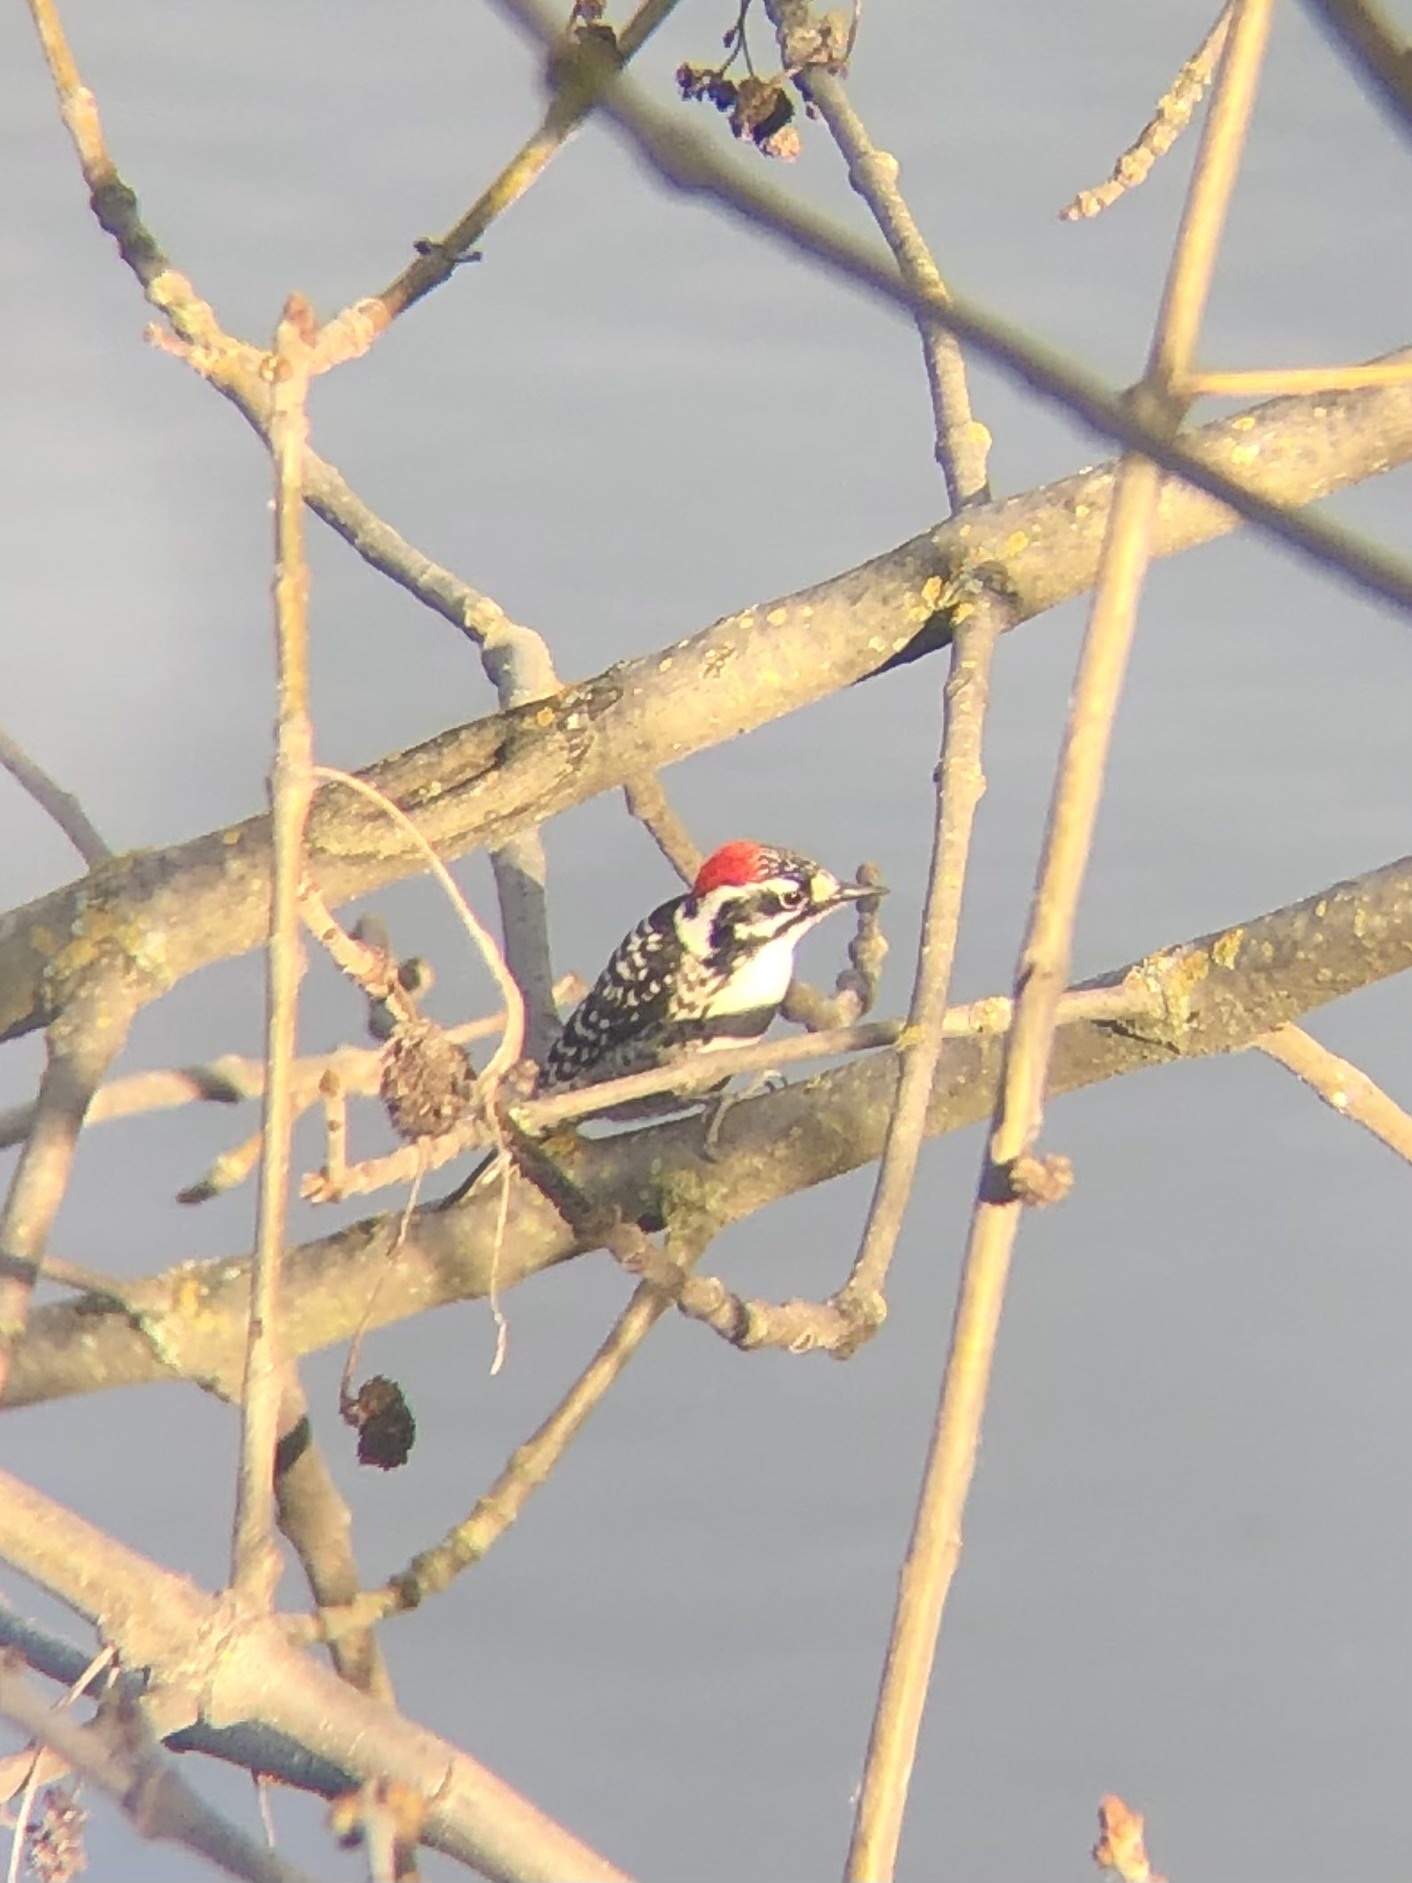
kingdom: Animalia
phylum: Chordata
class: Aves
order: Piciformes
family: Picidae
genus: Dryobates
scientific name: Dryobates nuttallii
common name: Nuttall's woodpecker
